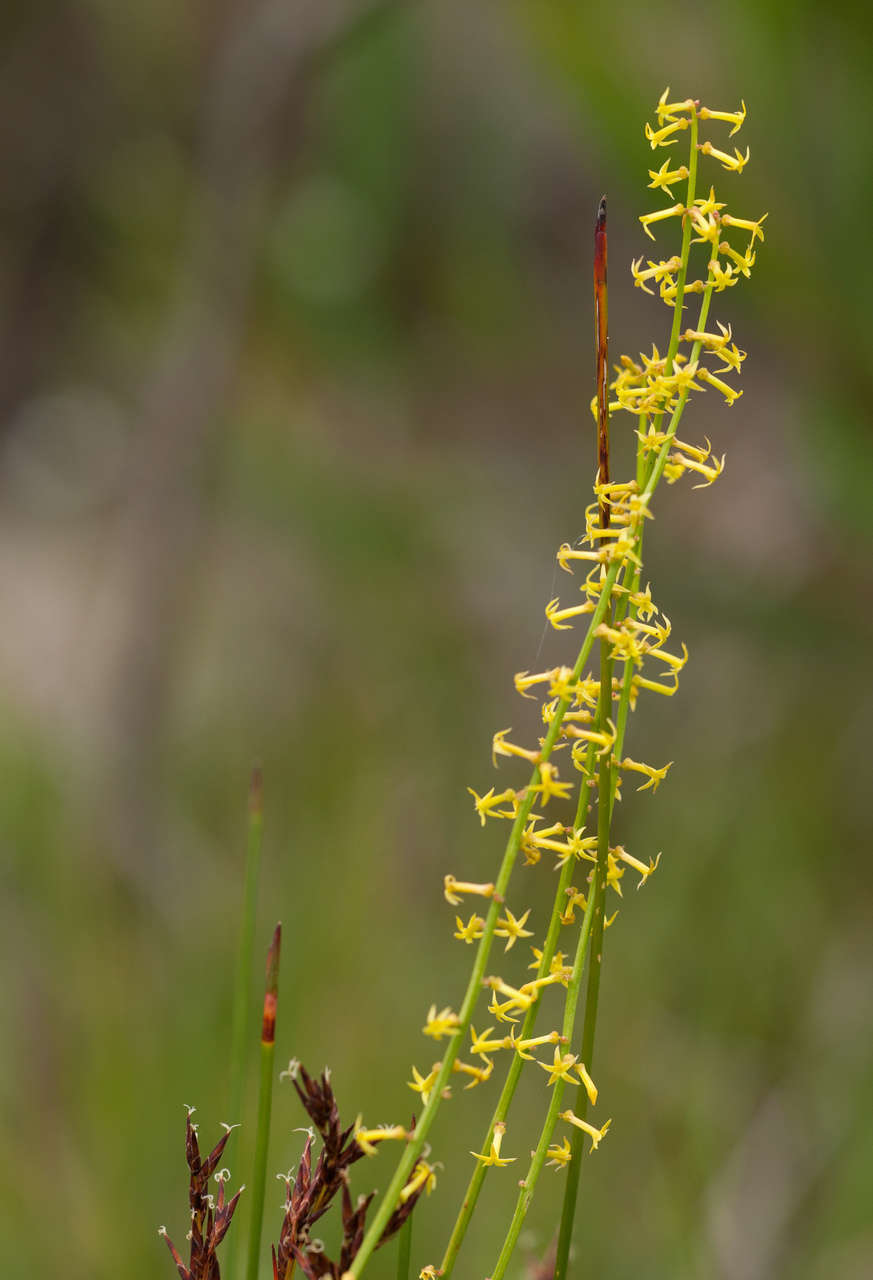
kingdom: Plantae
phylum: Tracheophyta
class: Magnoliopsida
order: Celastrales
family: Celastraceae
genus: Stackhousia
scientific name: Stackhousia viminea
